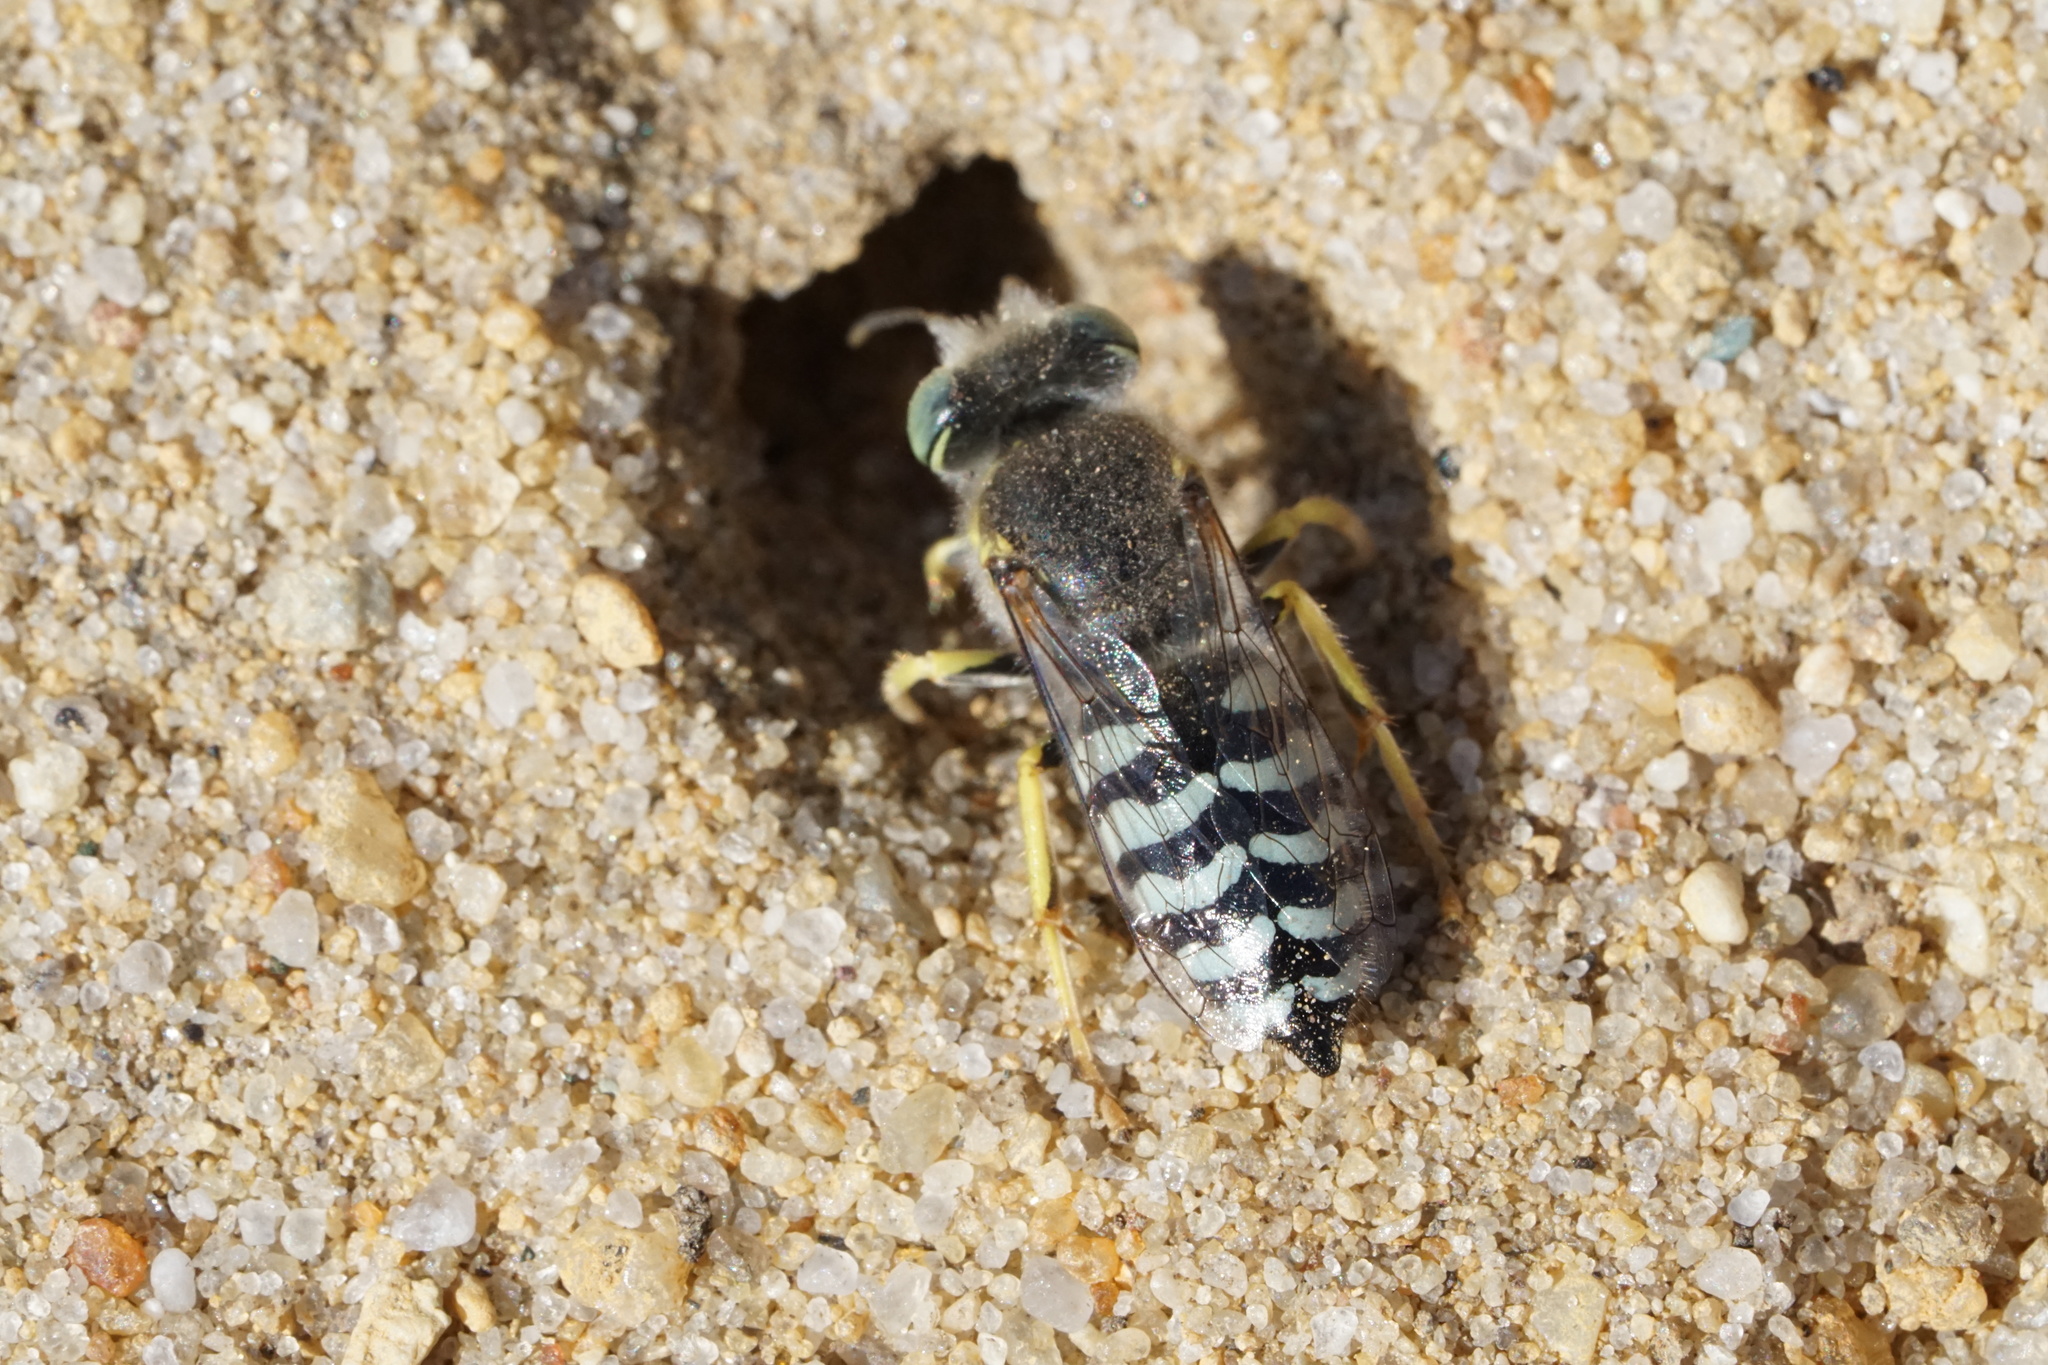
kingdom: Animalia
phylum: Arthropoda
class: Insecta
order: Hymenoptera
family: Crabronidae
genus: Bembix
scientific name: Bembix americana
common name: American sand wasp
